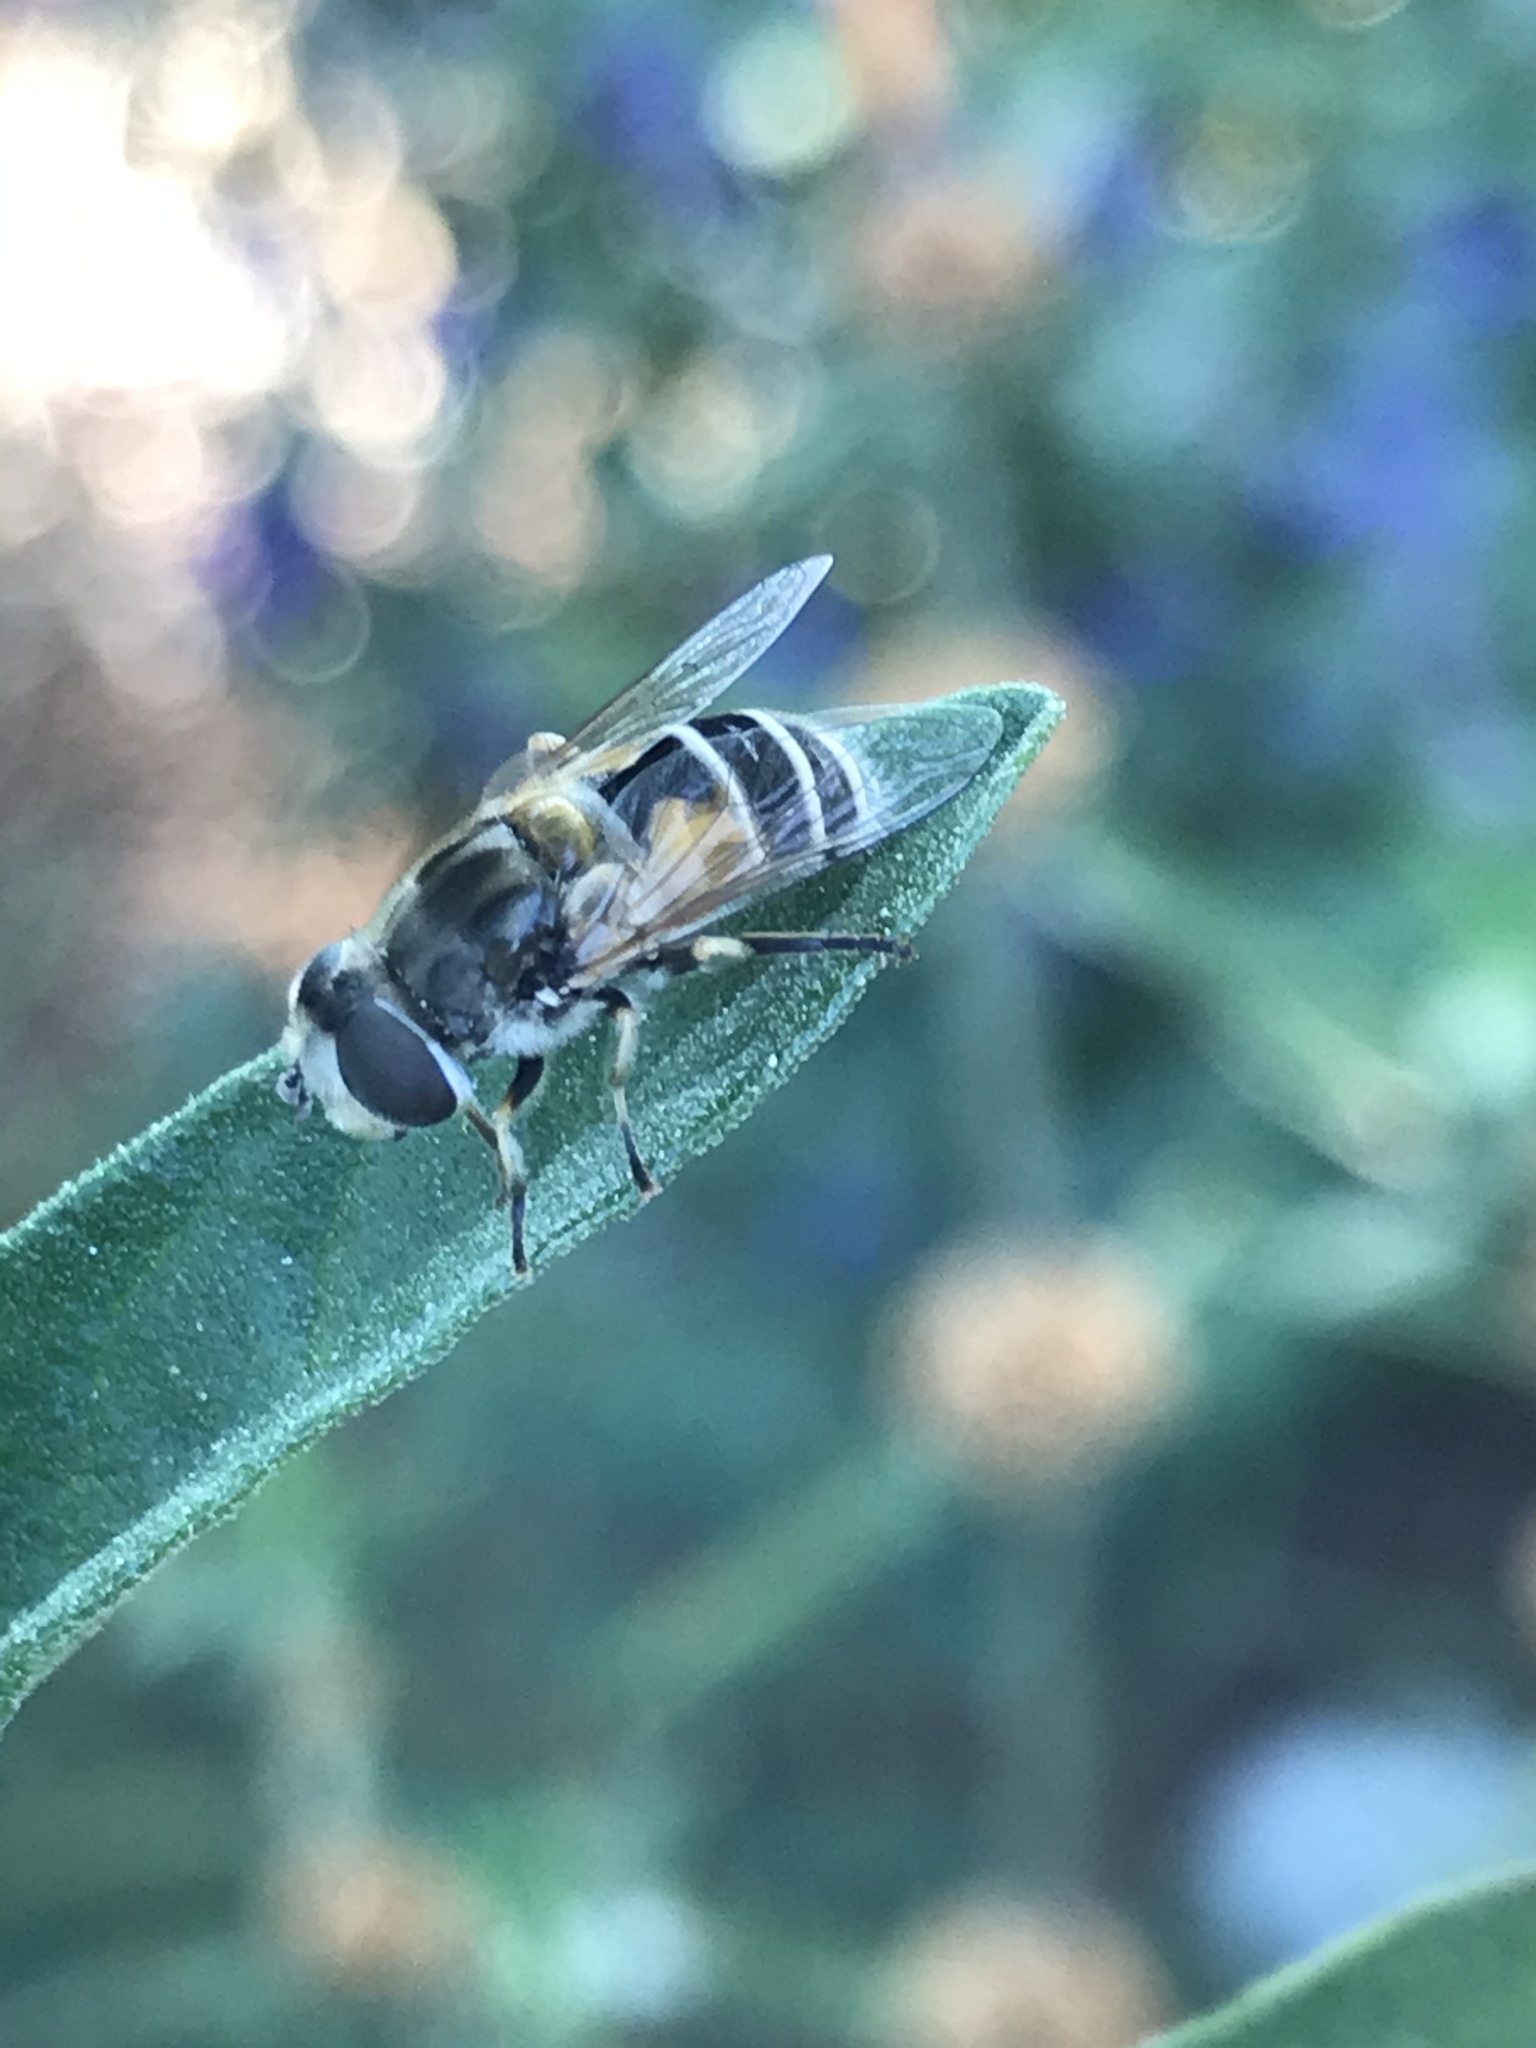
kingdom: Animalia
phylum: Arthropoda
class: Insecta
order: Diptera
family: Syrphidae
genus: Eristalis
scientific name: Eristalis arbustorum
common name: Hover fly
